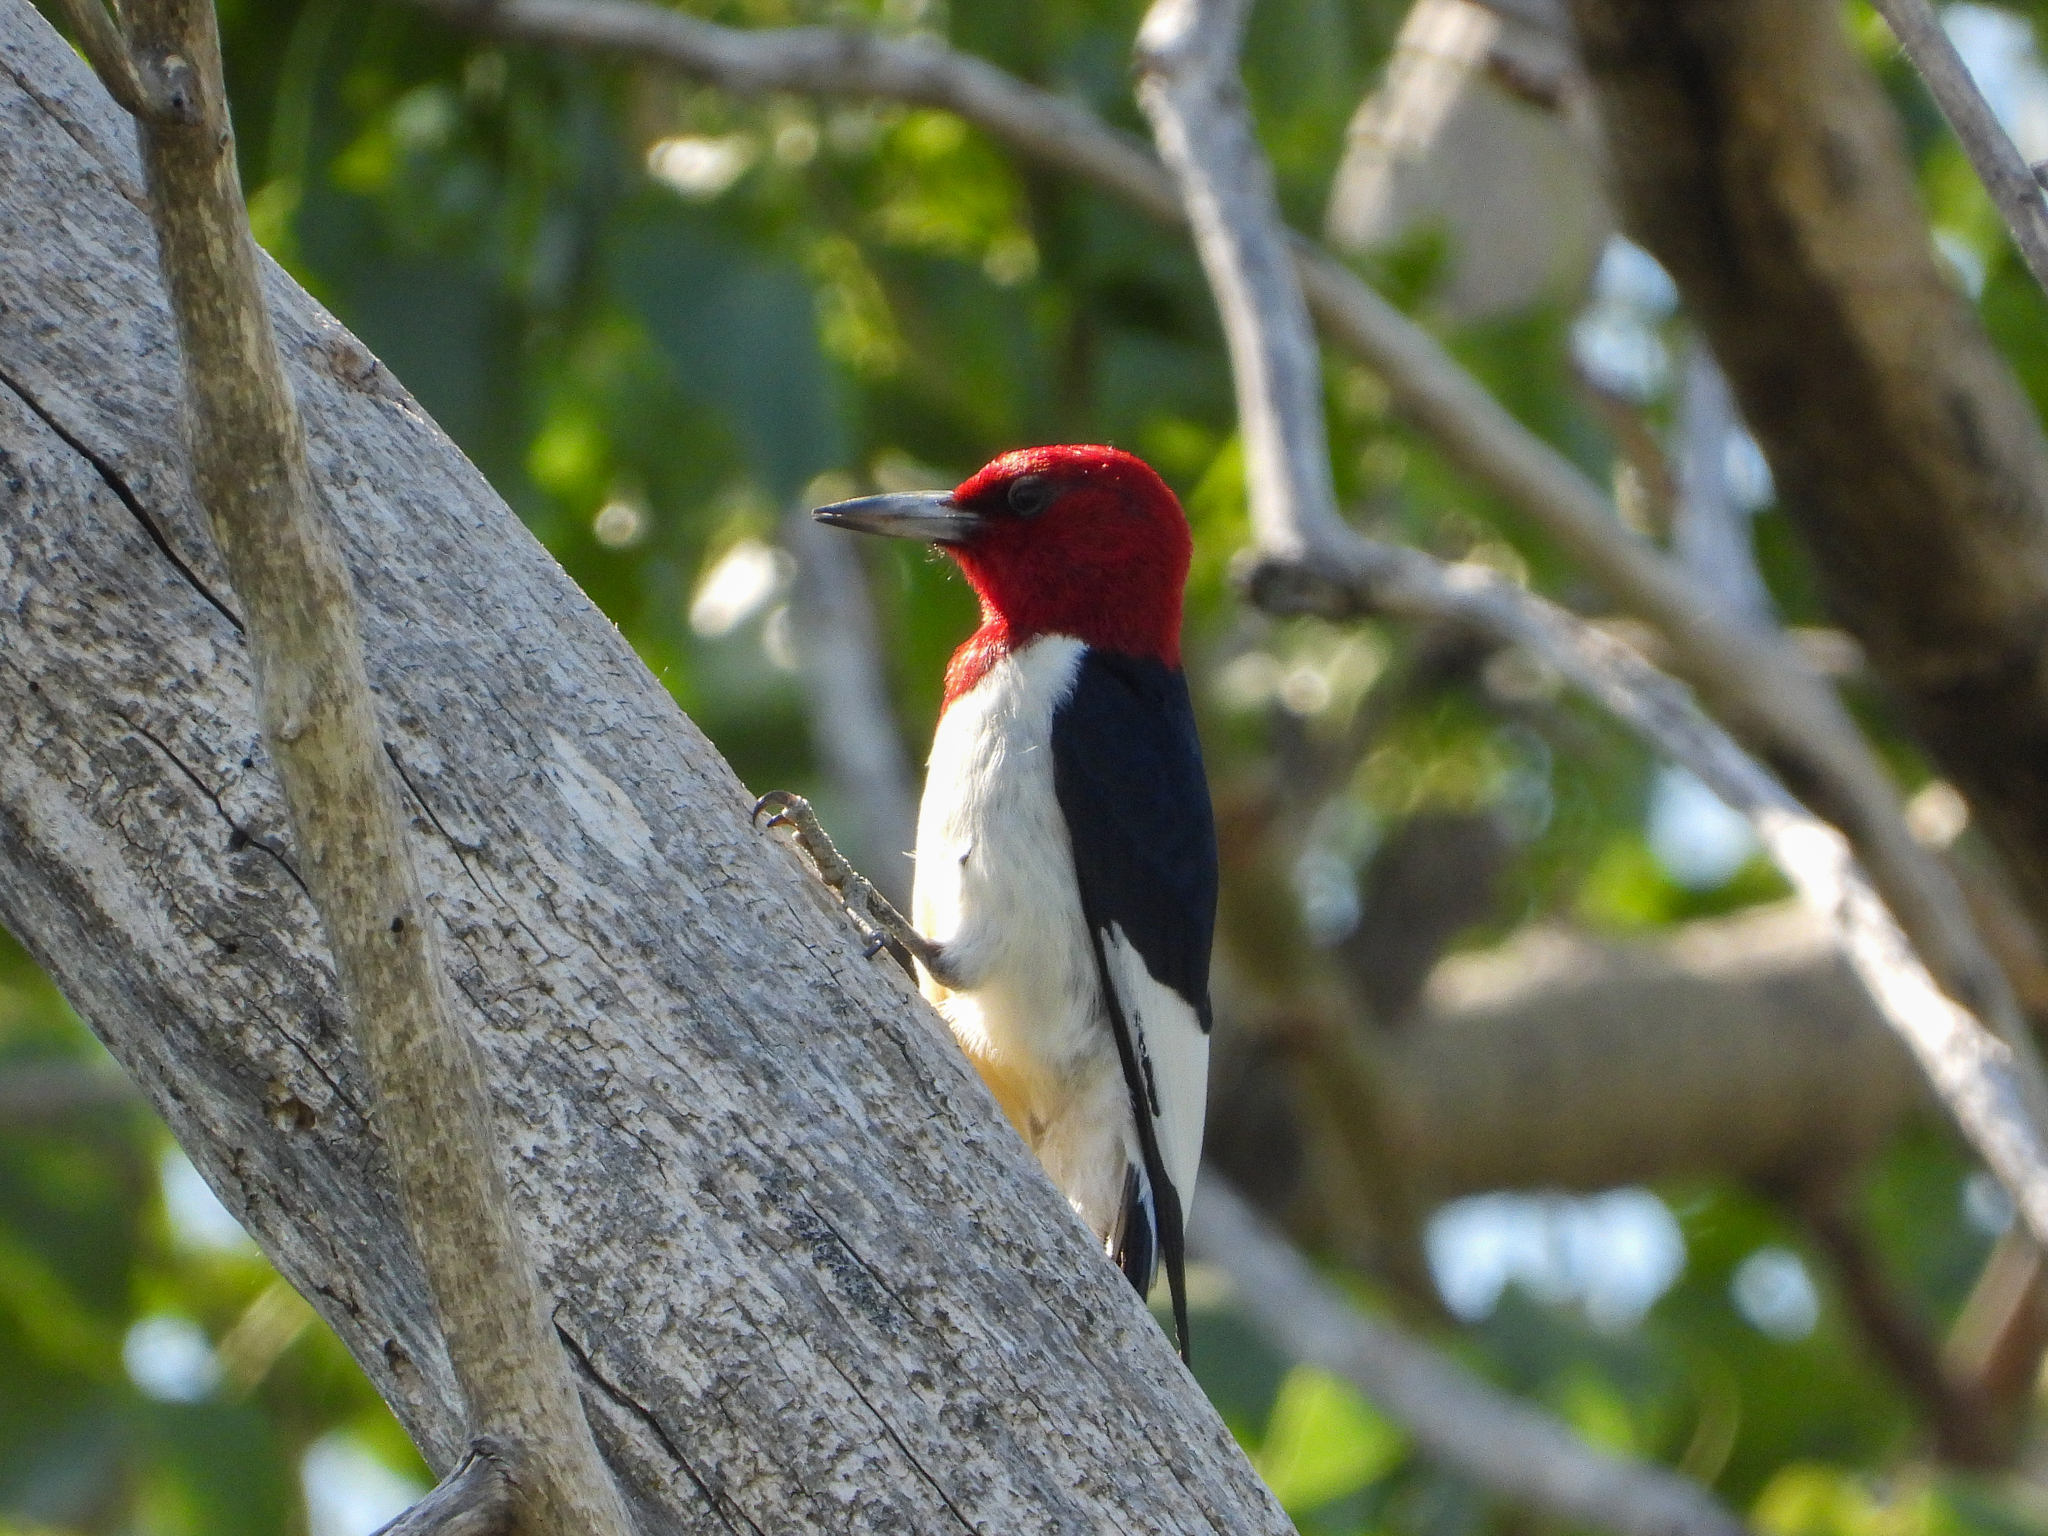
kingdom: Animalia
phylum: Chordata
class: Aves
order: Piciformes
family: Picidae
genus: Melanerpes
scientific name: Melanerpes erythrocephalus
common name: Red-headed woodpecker
